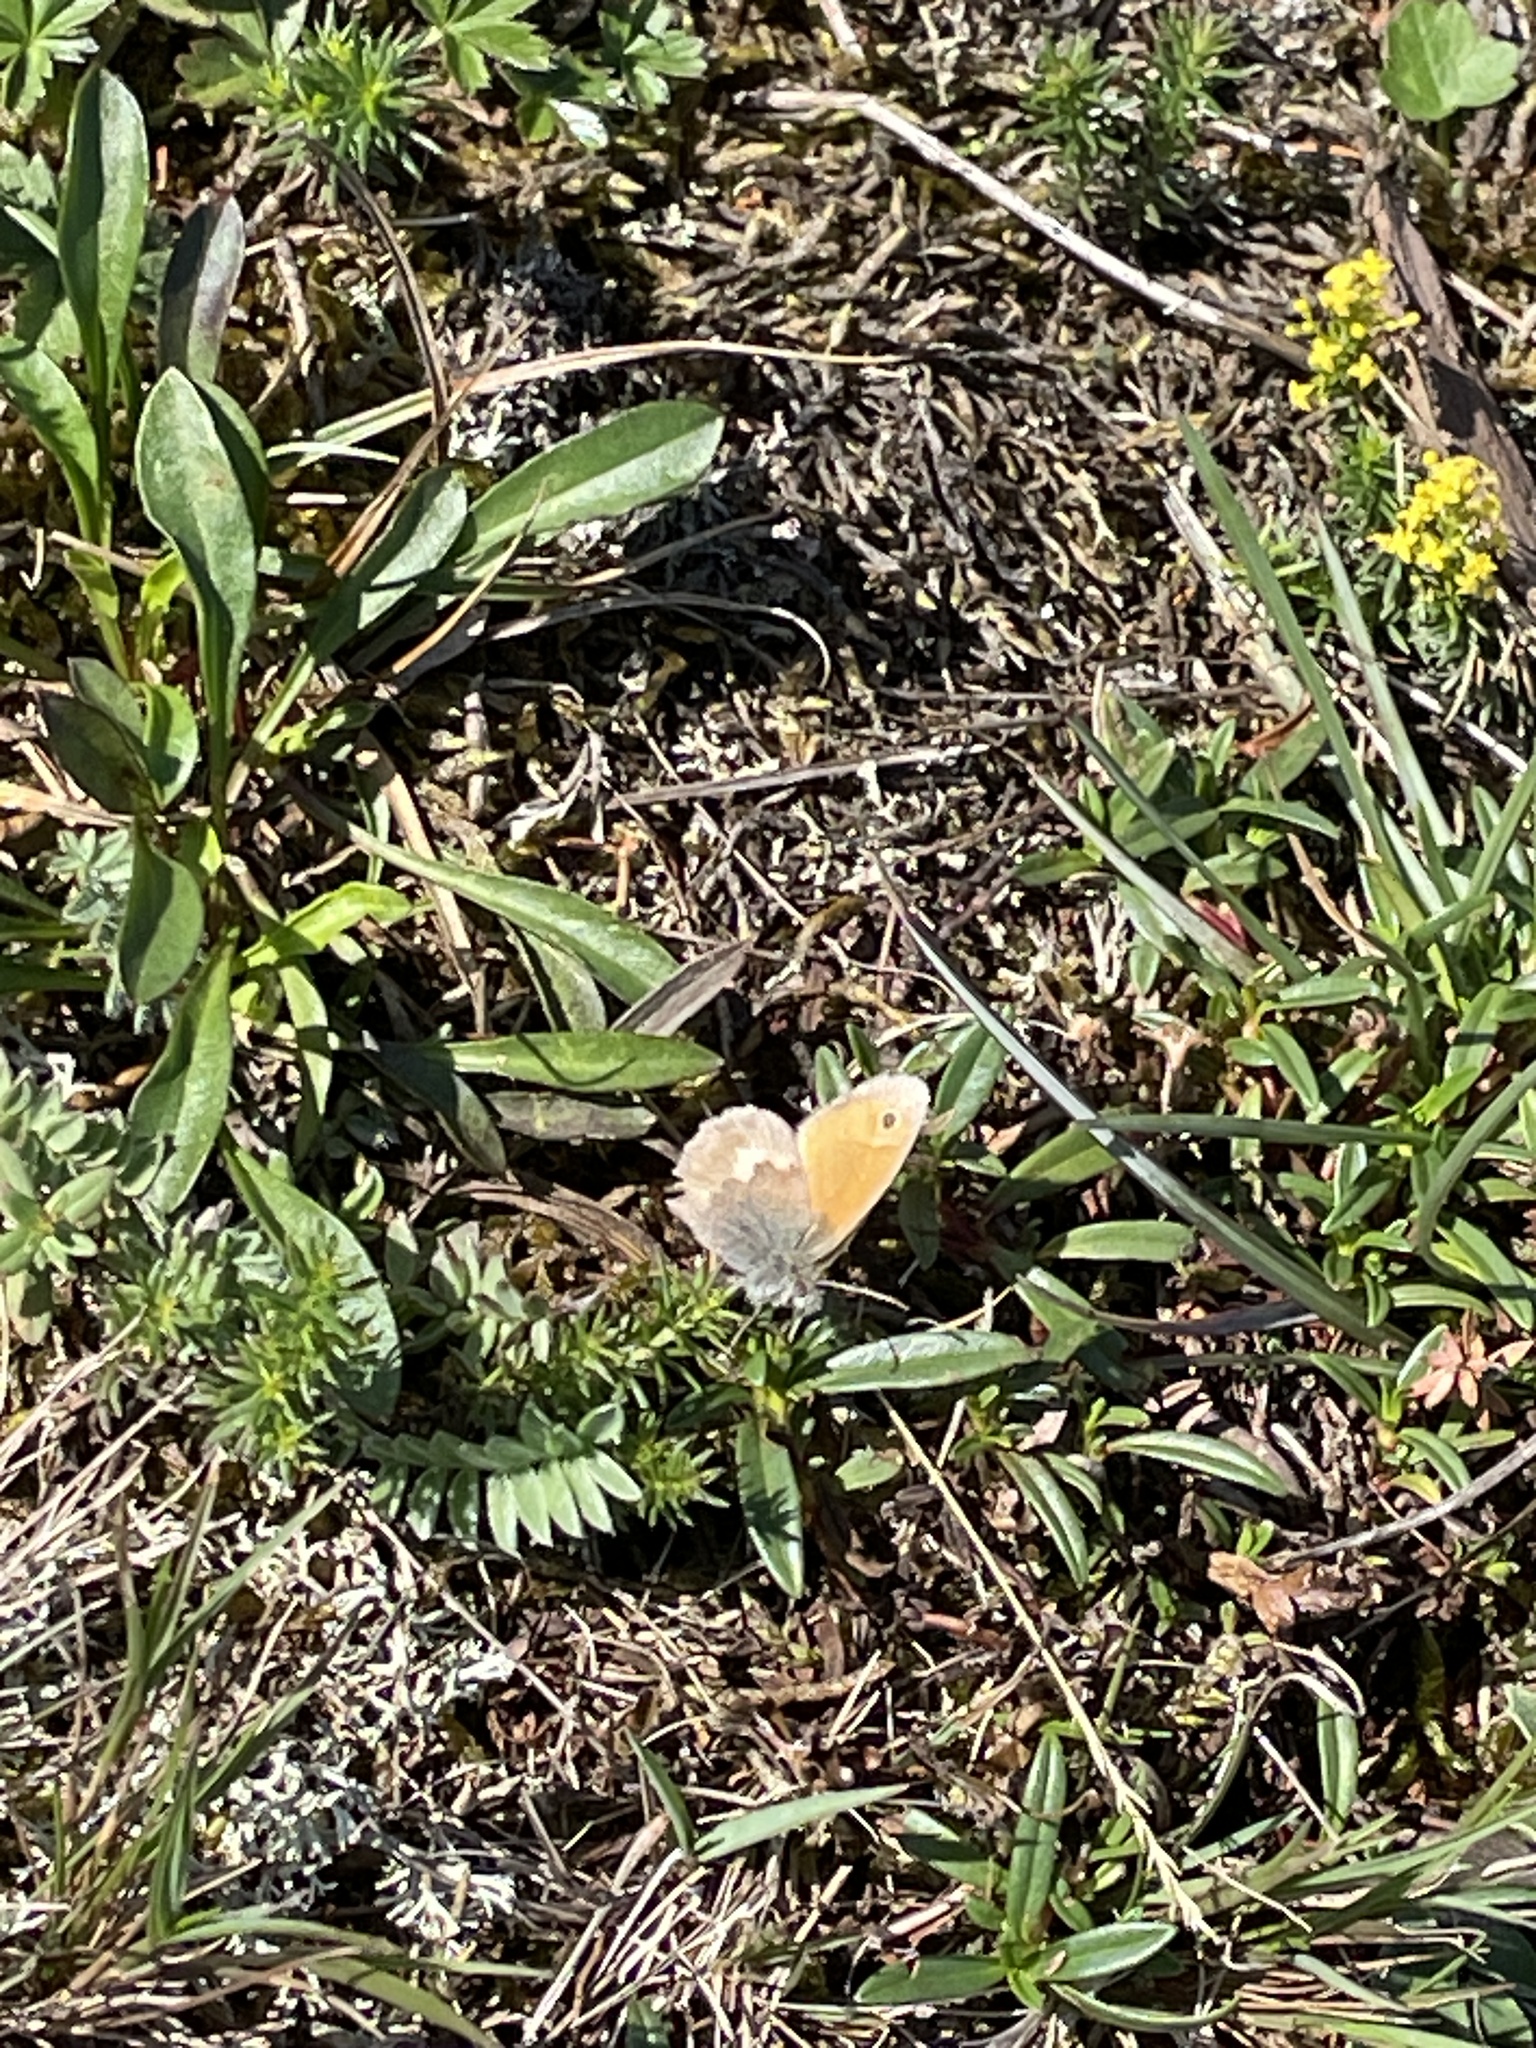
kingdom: Animalia
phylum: Arthropoda
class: Insecta
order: Lepidoptera
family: Nymphalidae
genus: Coenonympha
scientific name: Coenonympha pamphilus
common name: Small heath
